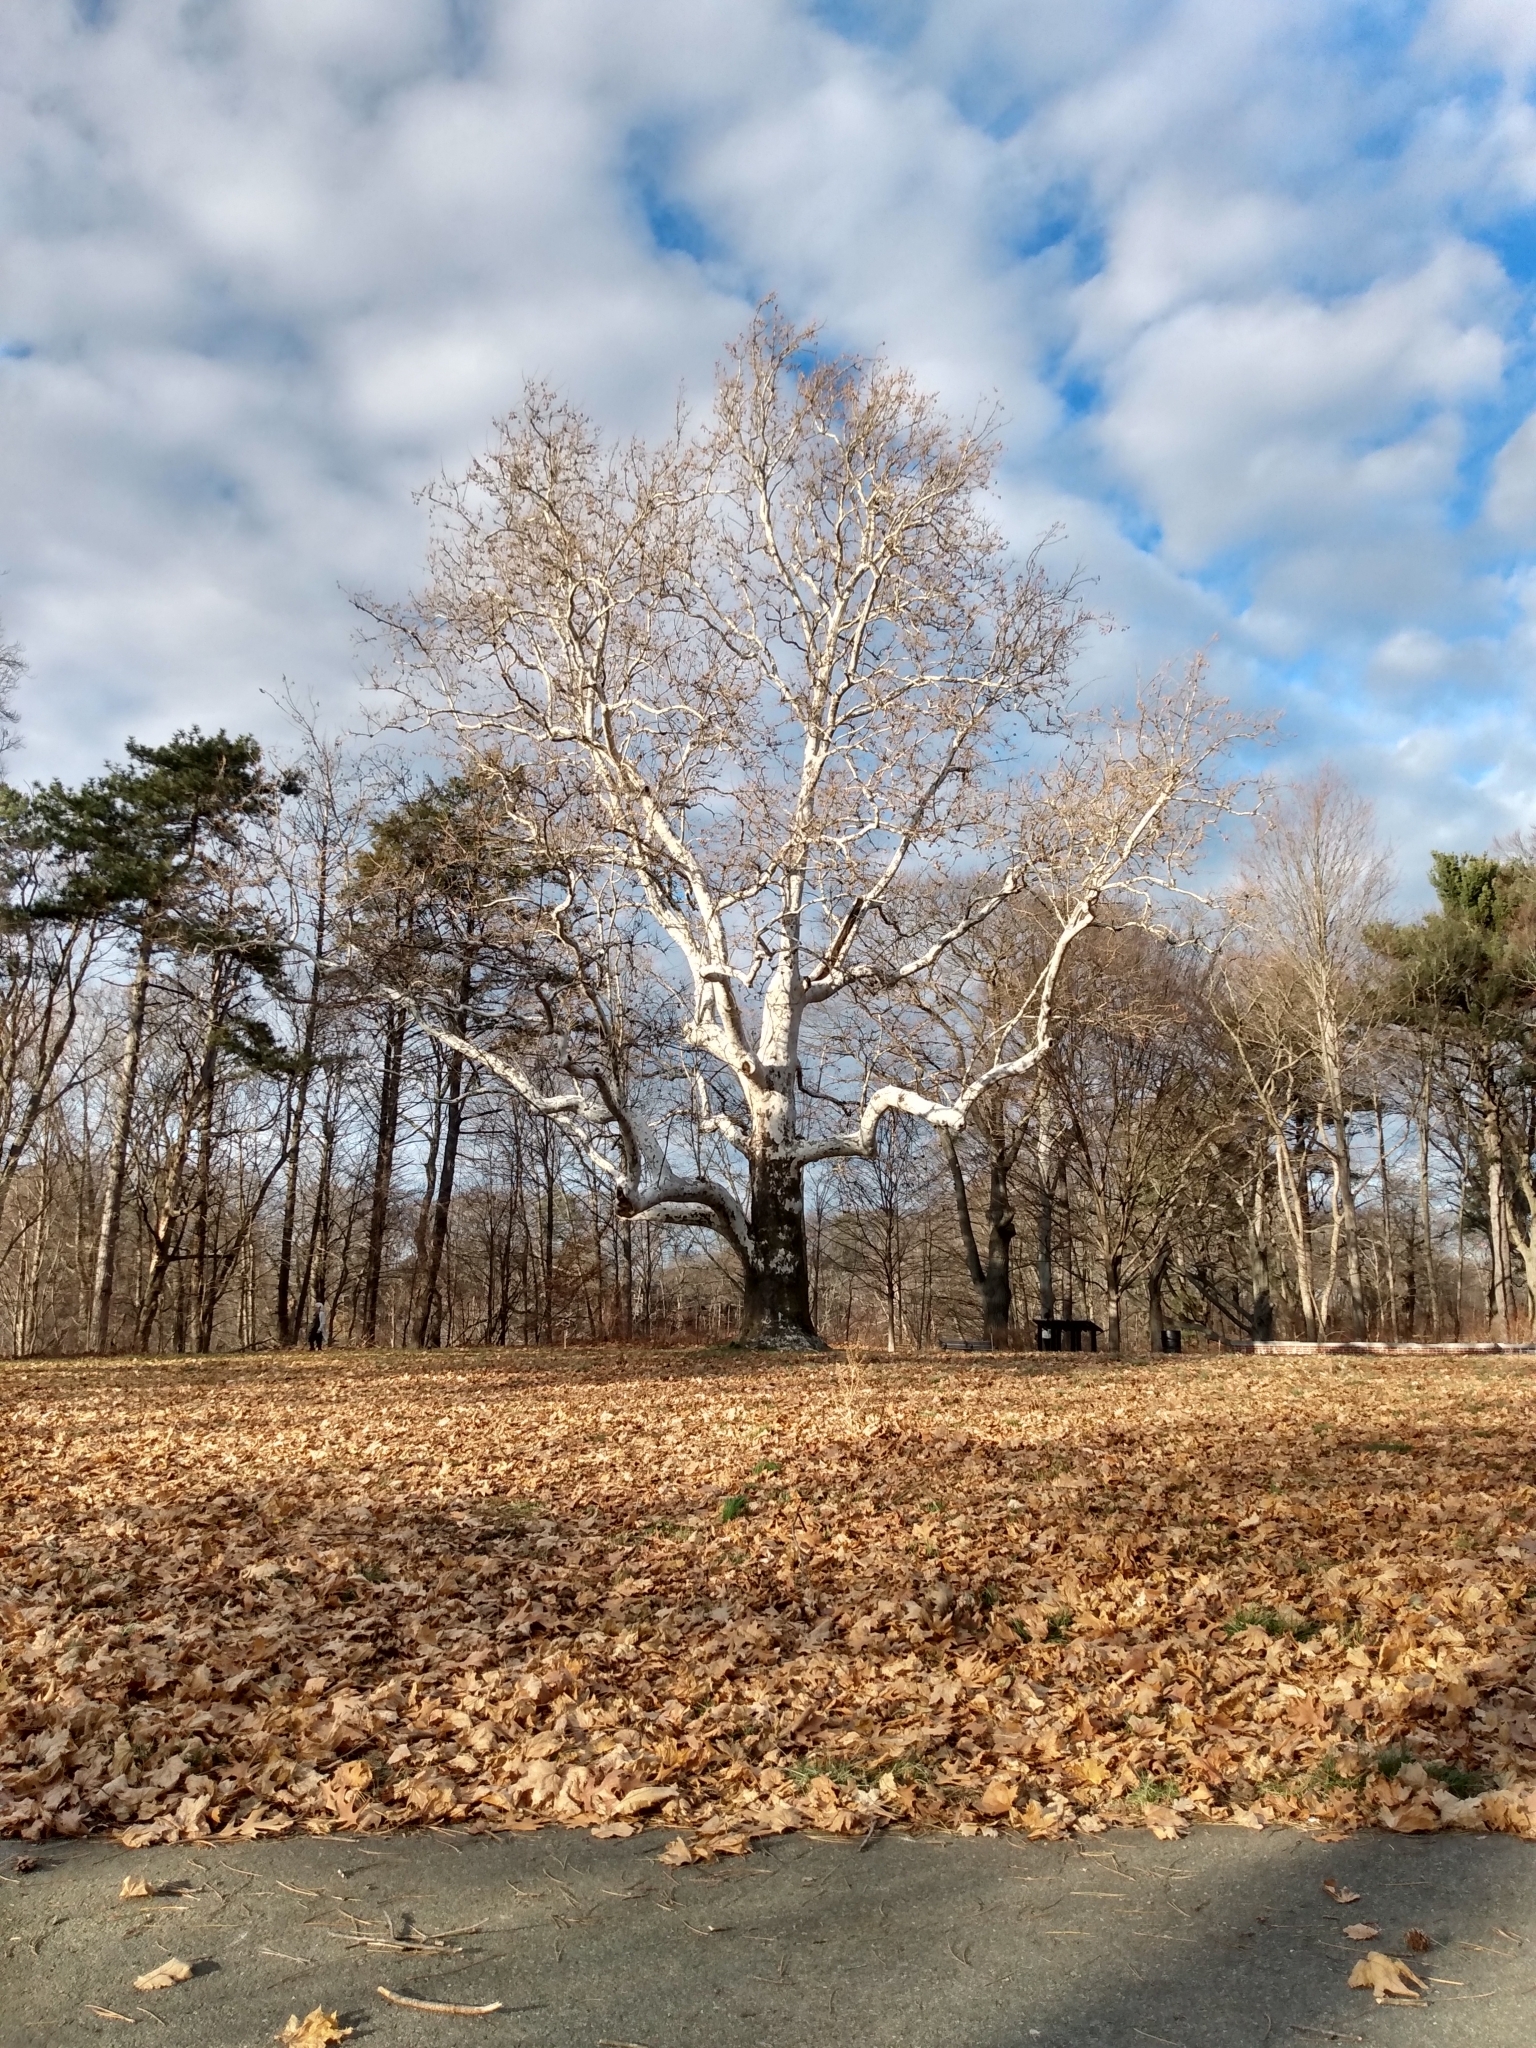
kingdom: Plantae
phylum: Tracheophyta
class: Magnoliopsida
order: Proteales
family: Platanaceae
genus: Platanus
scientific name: Platanus occidentalis
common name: American sycamore
